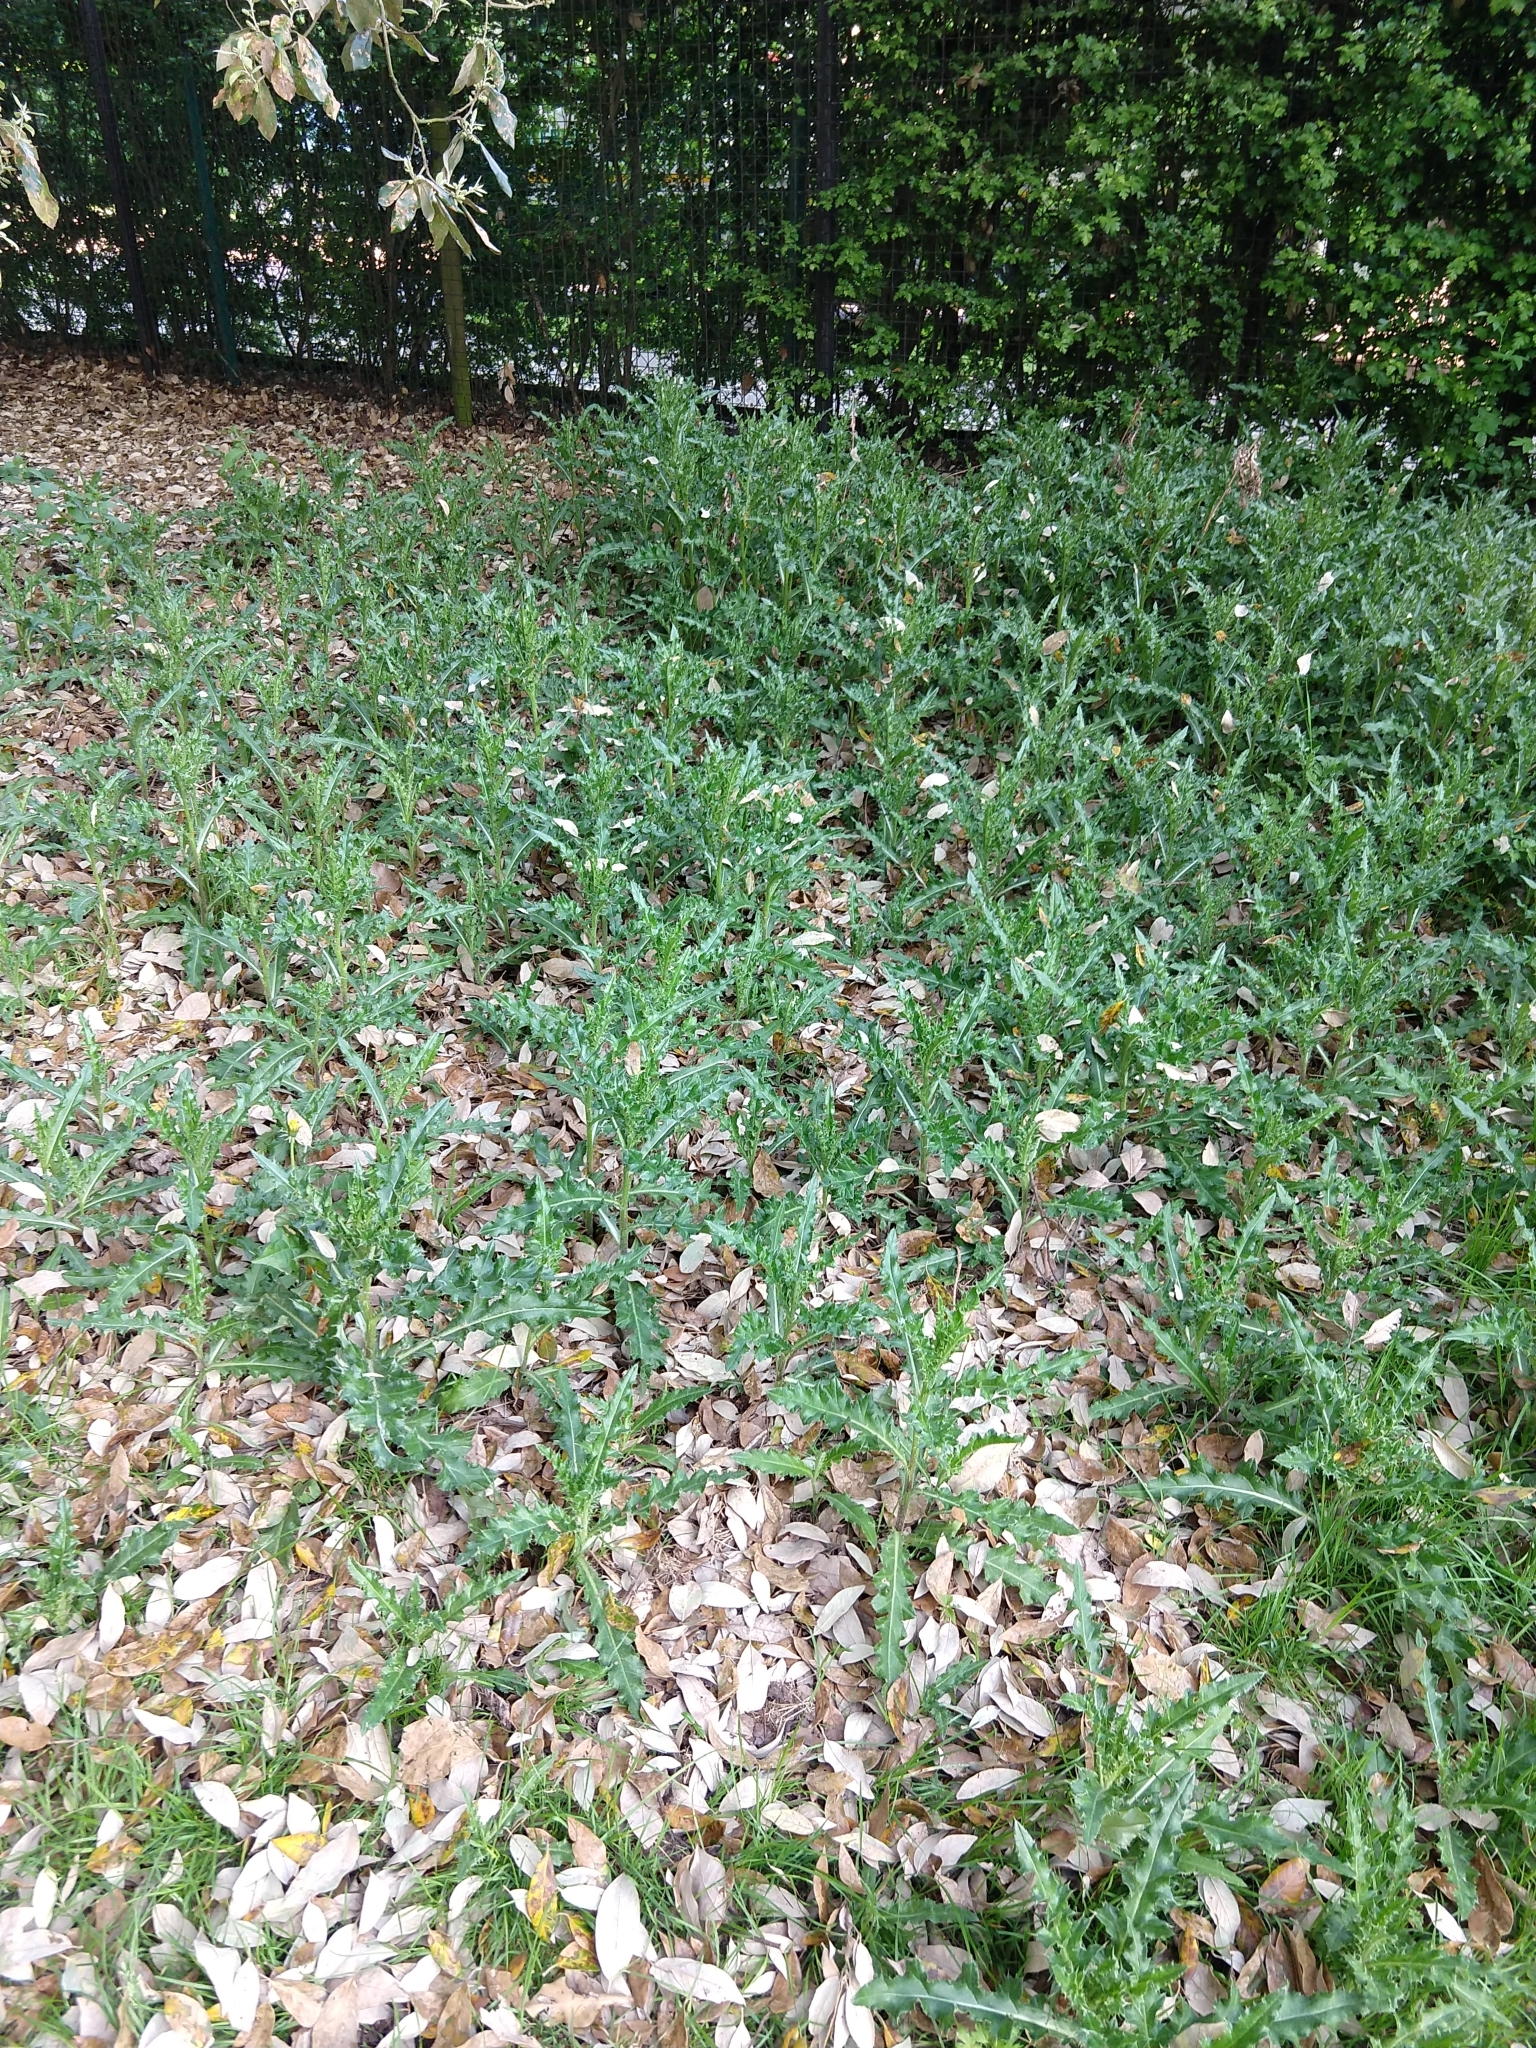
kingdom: Plantae
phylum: Tracheophyta
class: Magnoliopsida
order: Asterales
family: Asteraceae
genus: Cirsium
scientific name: Cirsium arvense
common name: Creeping thistle
